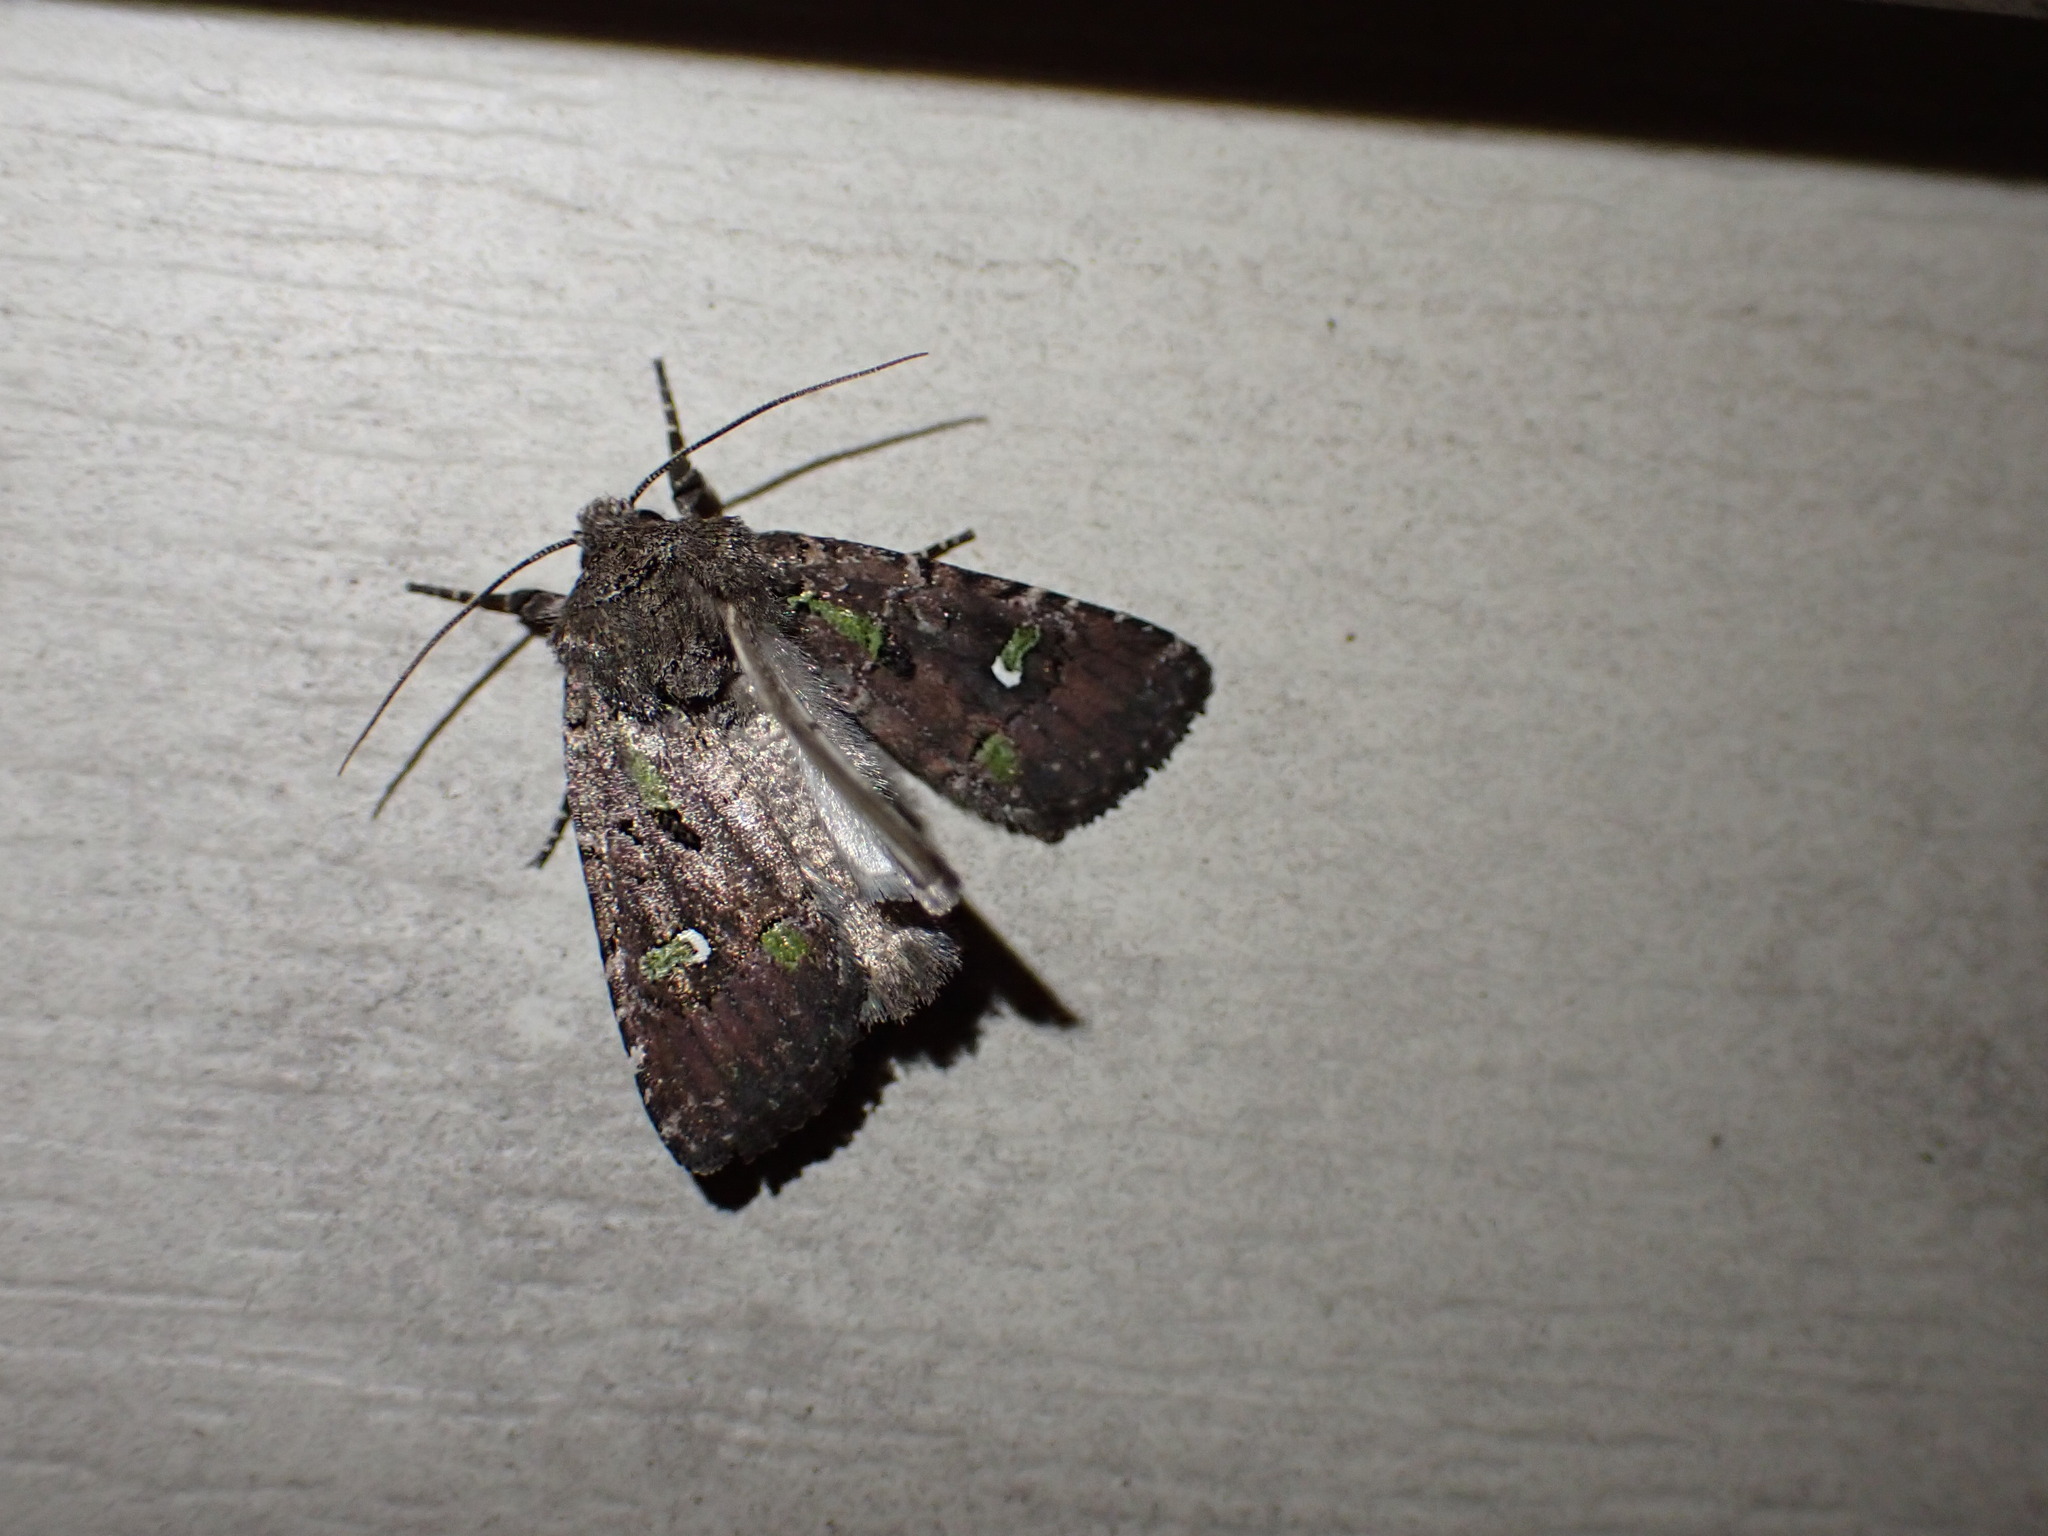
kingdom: Animalia
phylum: Arthropoda
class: Insecta
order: Lepidoptera
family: Noctuidae
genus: Lacinipolia
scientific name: Lacinipolia renigera
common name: Kidney-spotted minor
